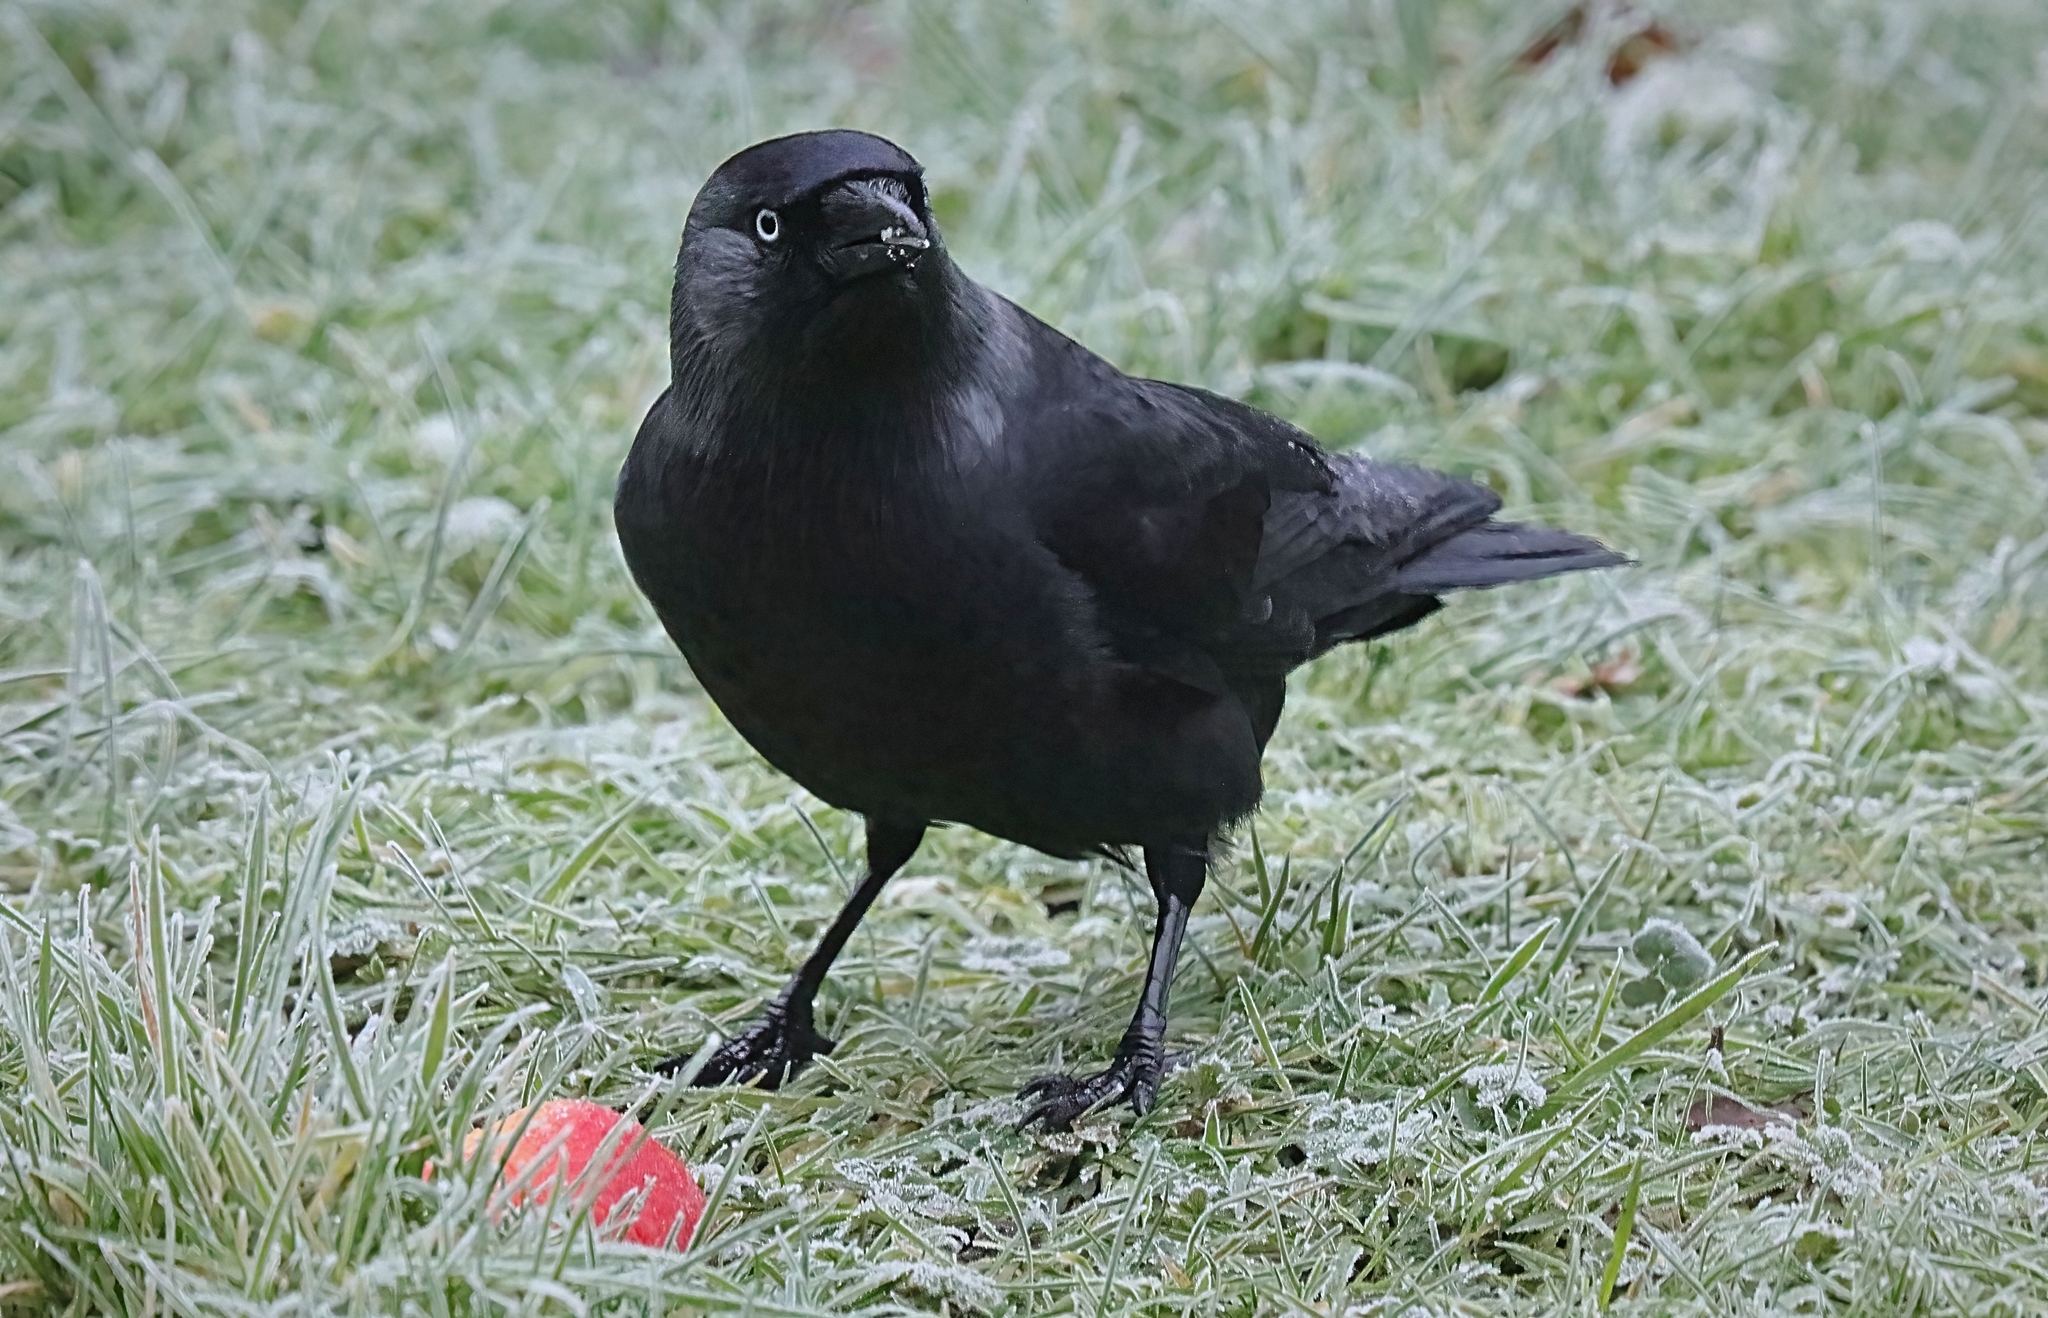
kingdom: Animalia
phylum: Chordata
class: Aves
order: Passeriformes
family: Corvidae
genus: Coloeus
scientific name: Coloeus monedula
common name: Western jackdaw
